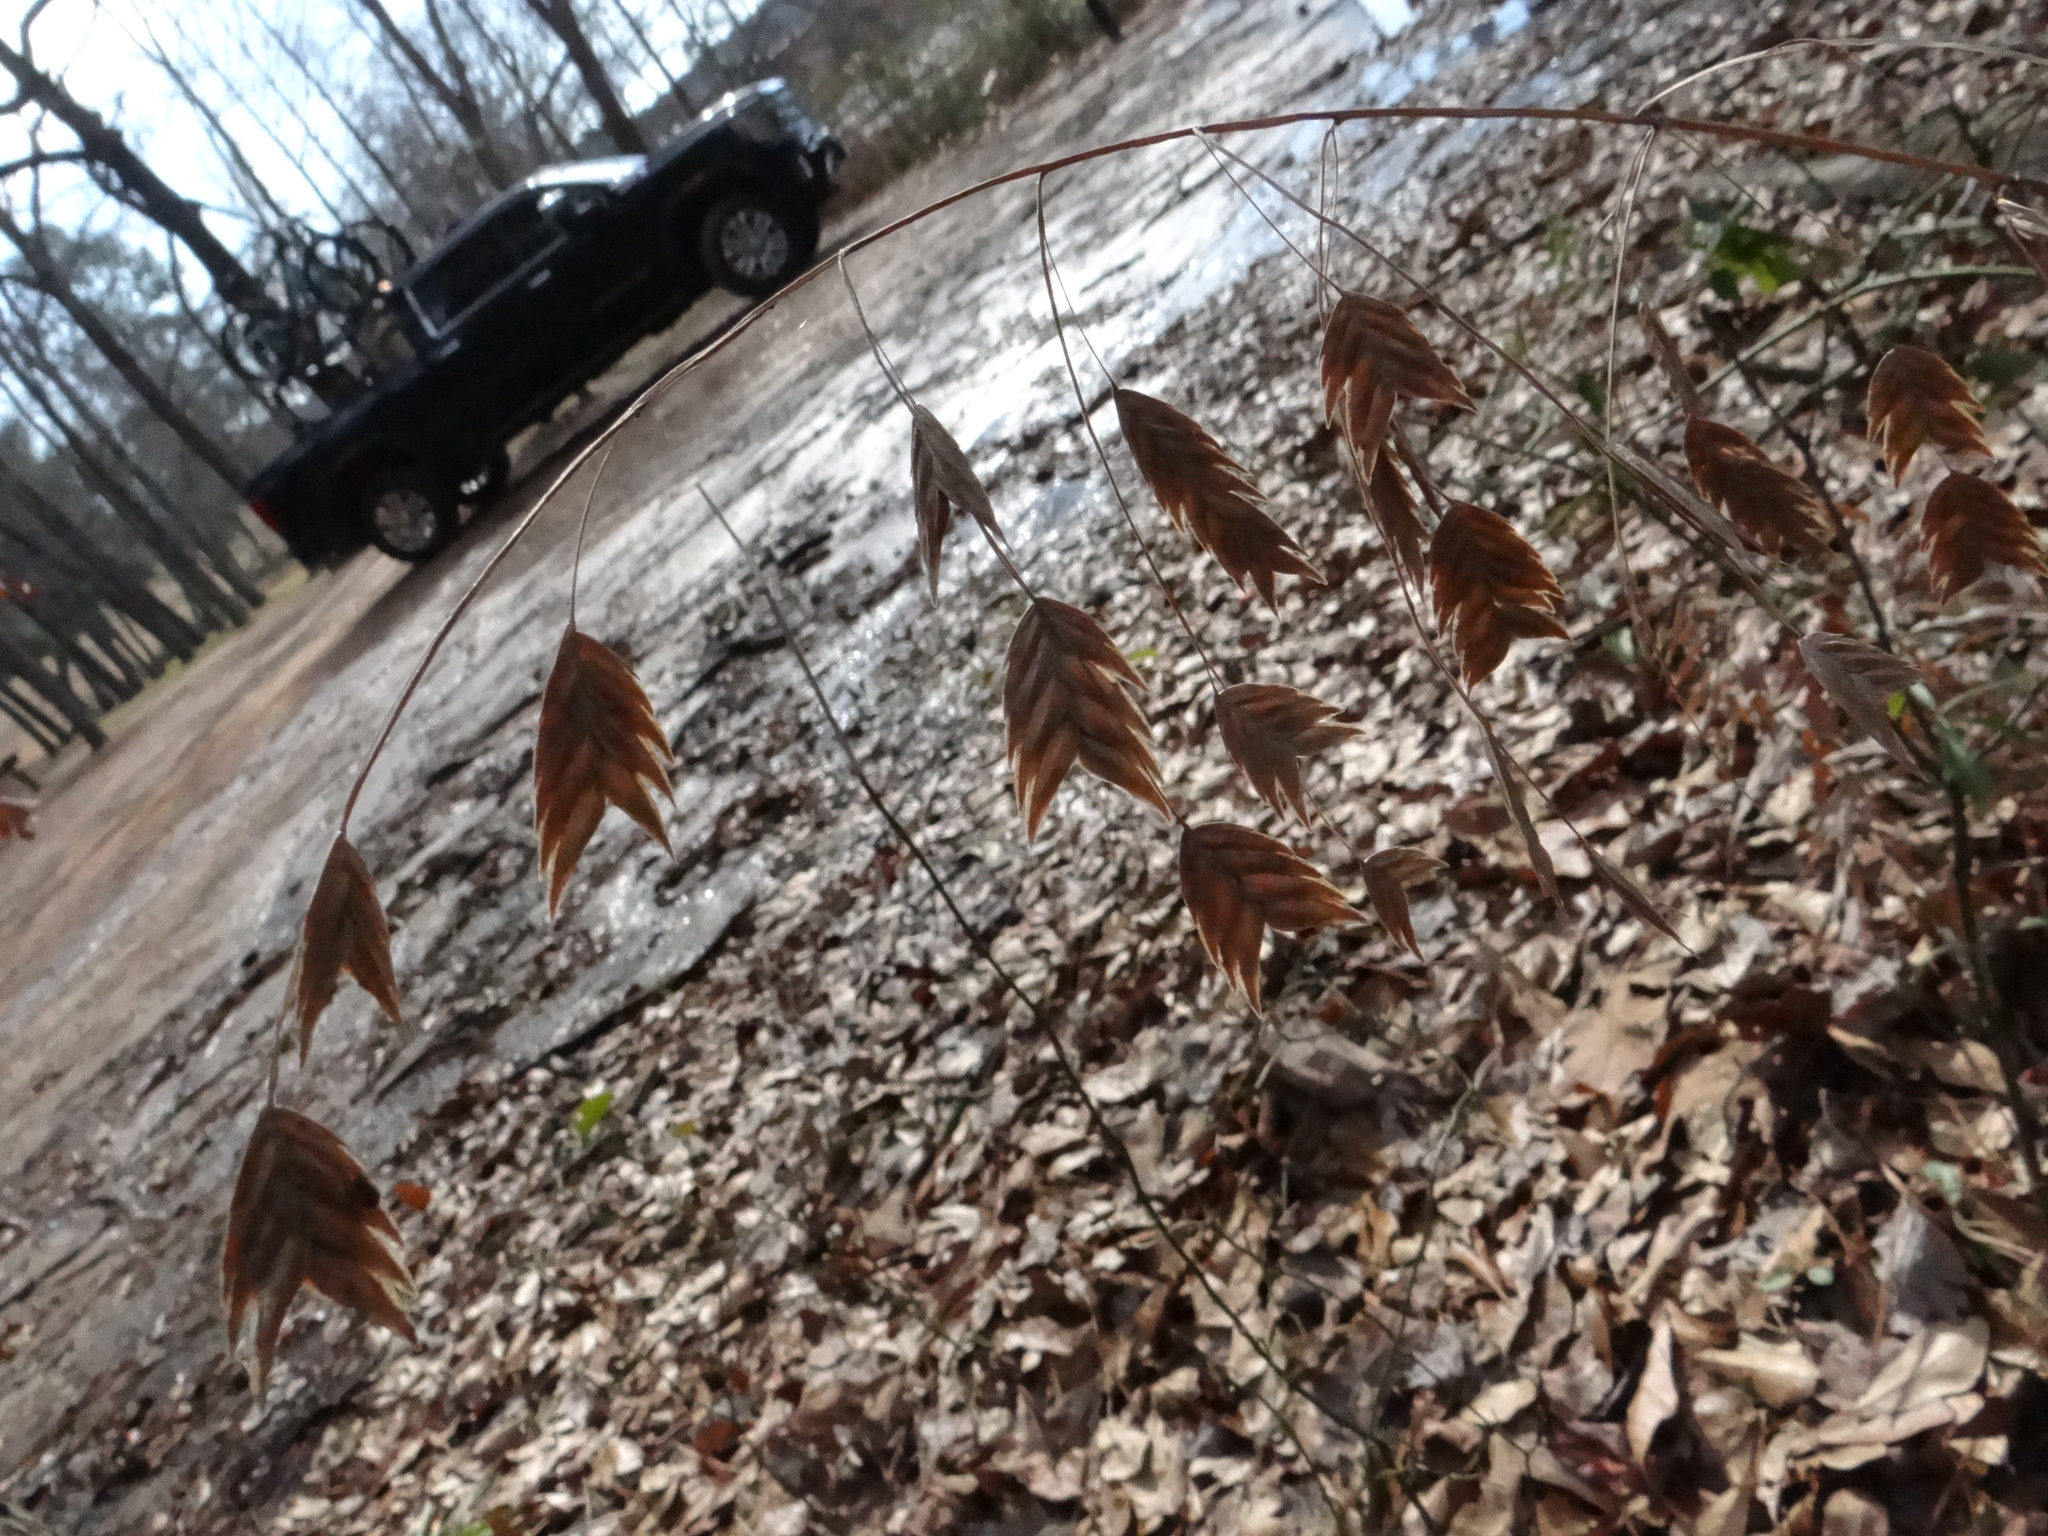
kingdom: Plantae
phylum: Tracheophyta
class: Liliopsida
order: Poales
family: Poaceae
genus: Chasmanthium
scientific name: Chasmanthium latifolium
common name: Broad-leaved chasmanthium
